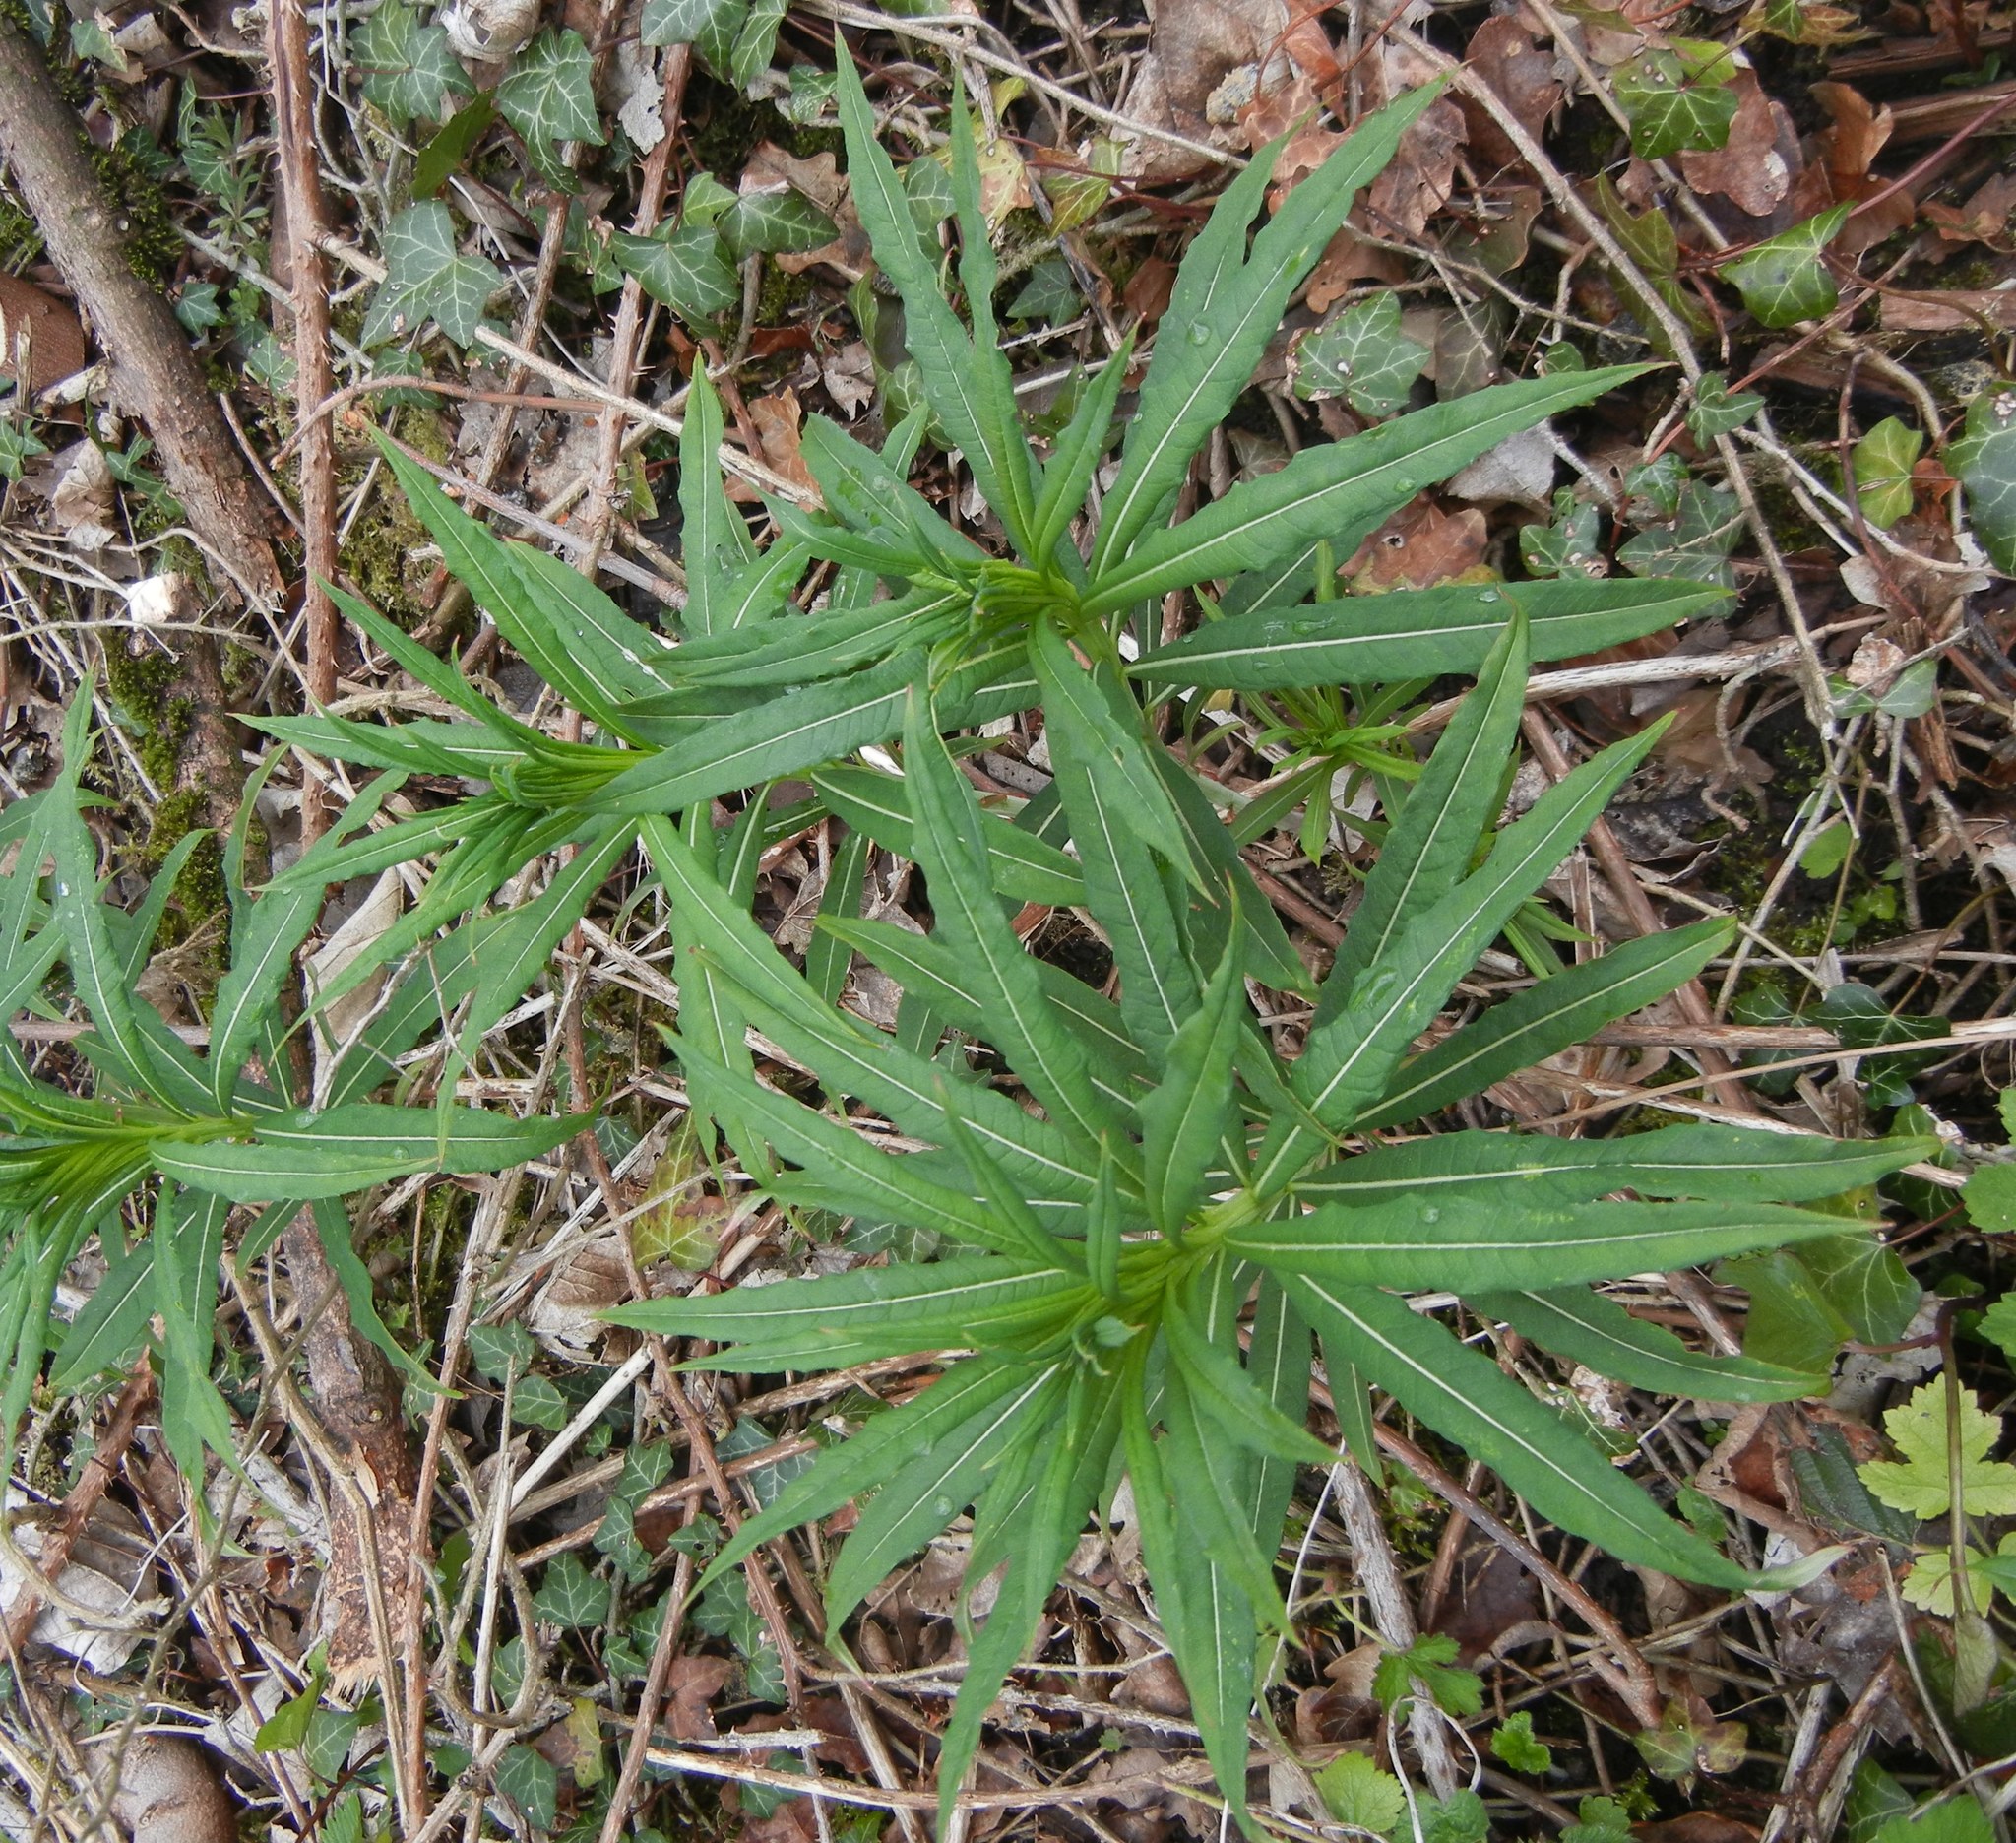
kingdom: Plantae
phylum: Tracheophyta
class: Magnoliopsida
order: Myrtales
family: Onagraceae
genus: Chamaenerion
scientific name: Chamaenerion angustifolium
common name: Fireweed
